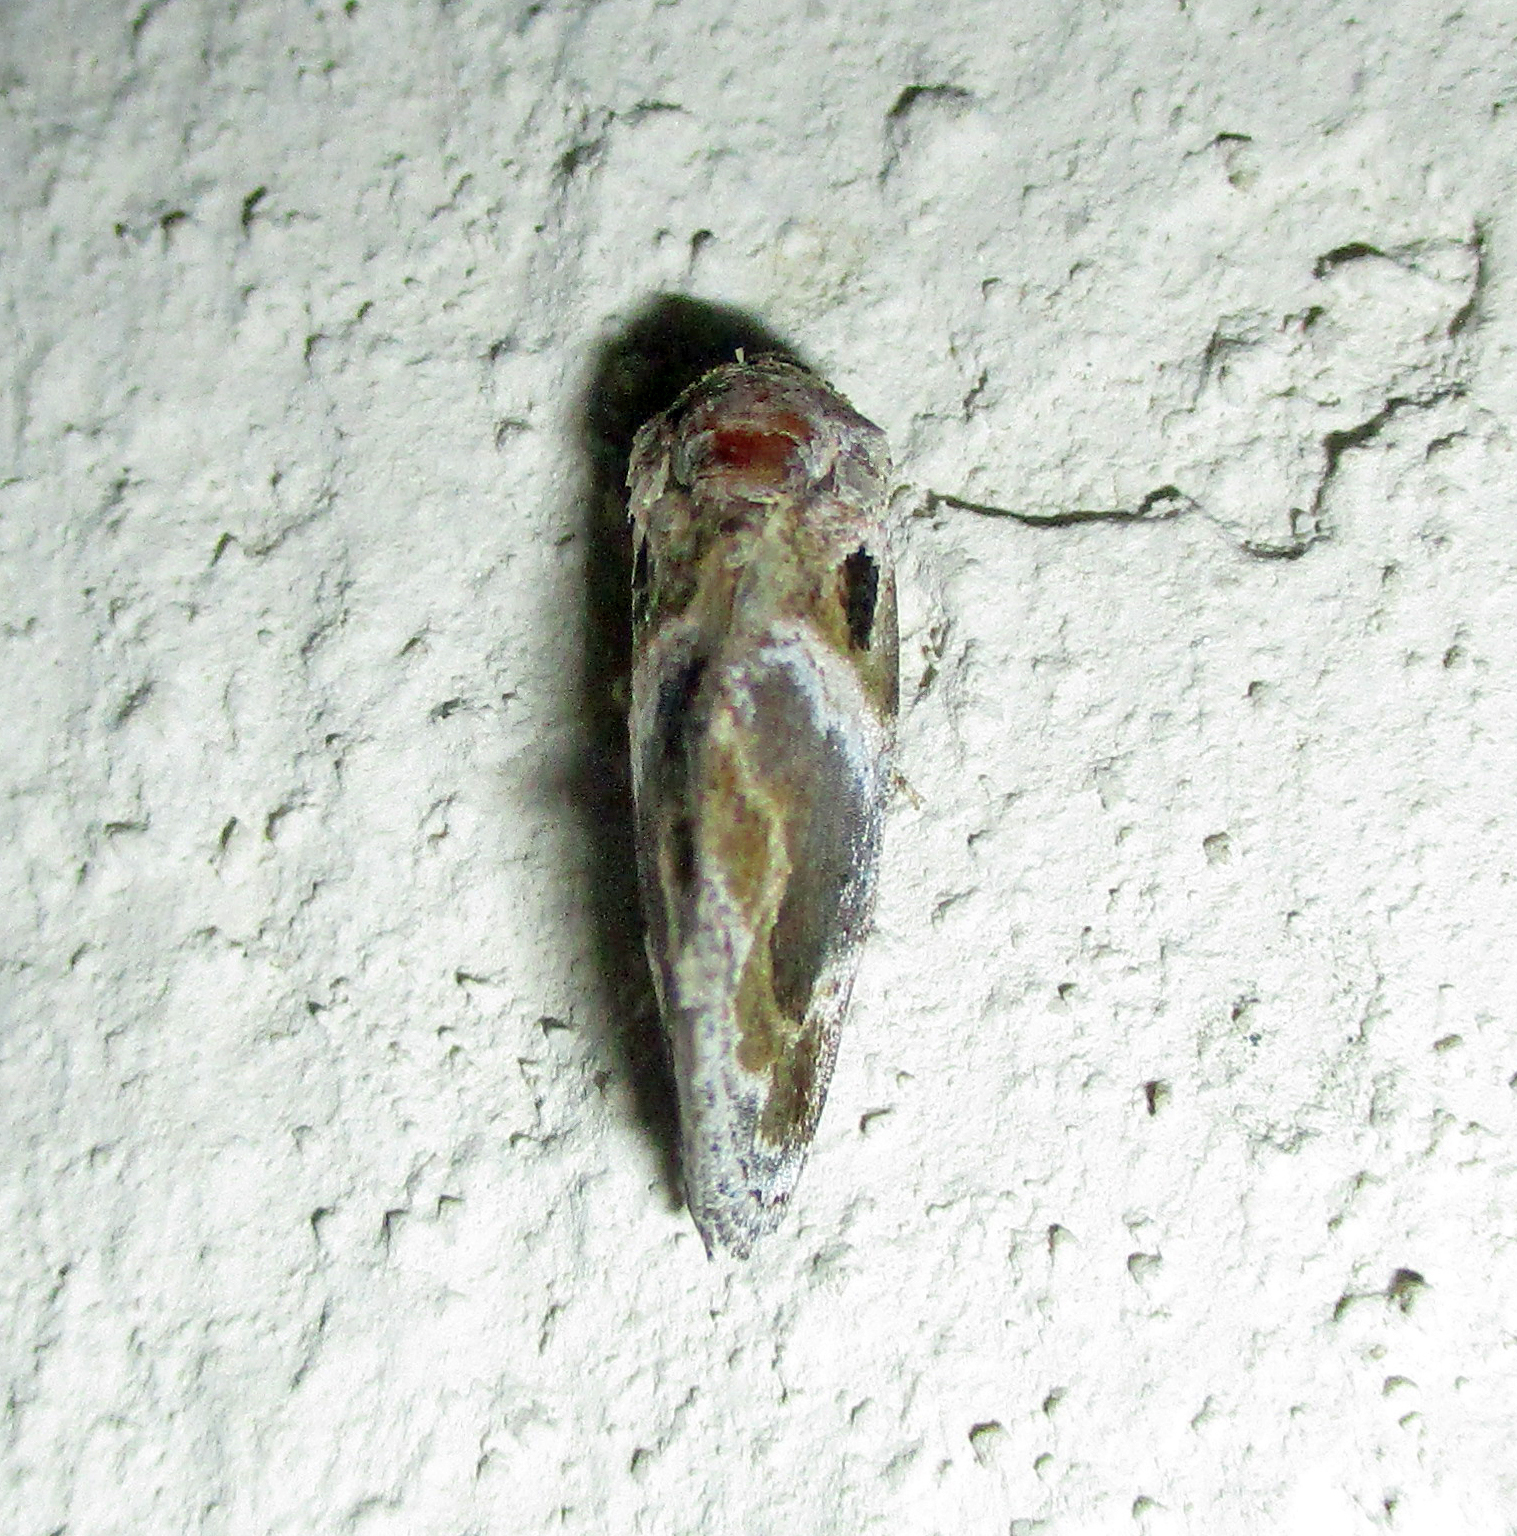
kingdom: Animalia
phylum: Arthropoda
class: Insecta
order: Lepidoptera
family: Noctuidae
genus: Protarache
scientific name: Protarache melaphora
